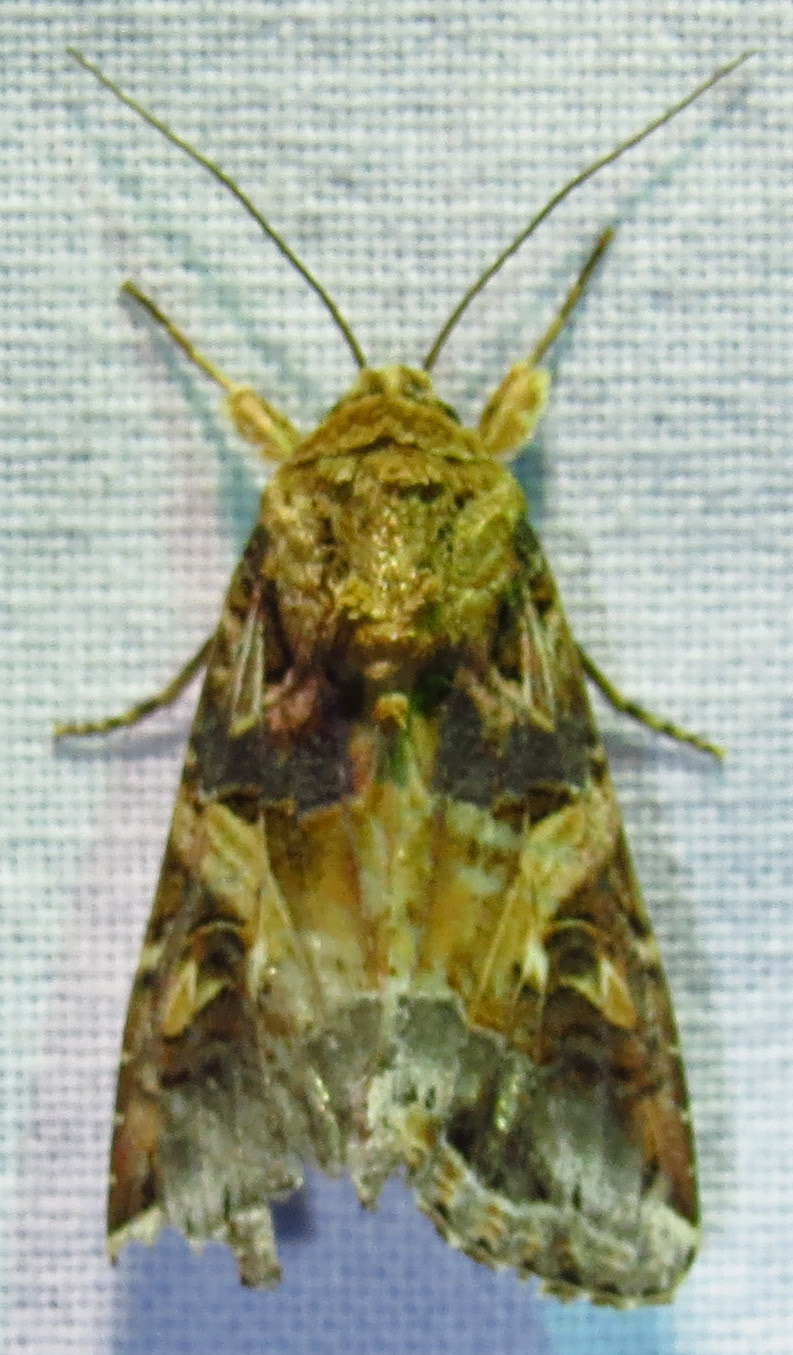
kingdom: Animalia
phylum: Arthropoda
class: Insecta
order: Lepidoptera
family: Noctuidae
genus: Spodoptera
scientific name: Spodoptera ornithogalli
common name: Yellow-striped armyworm
